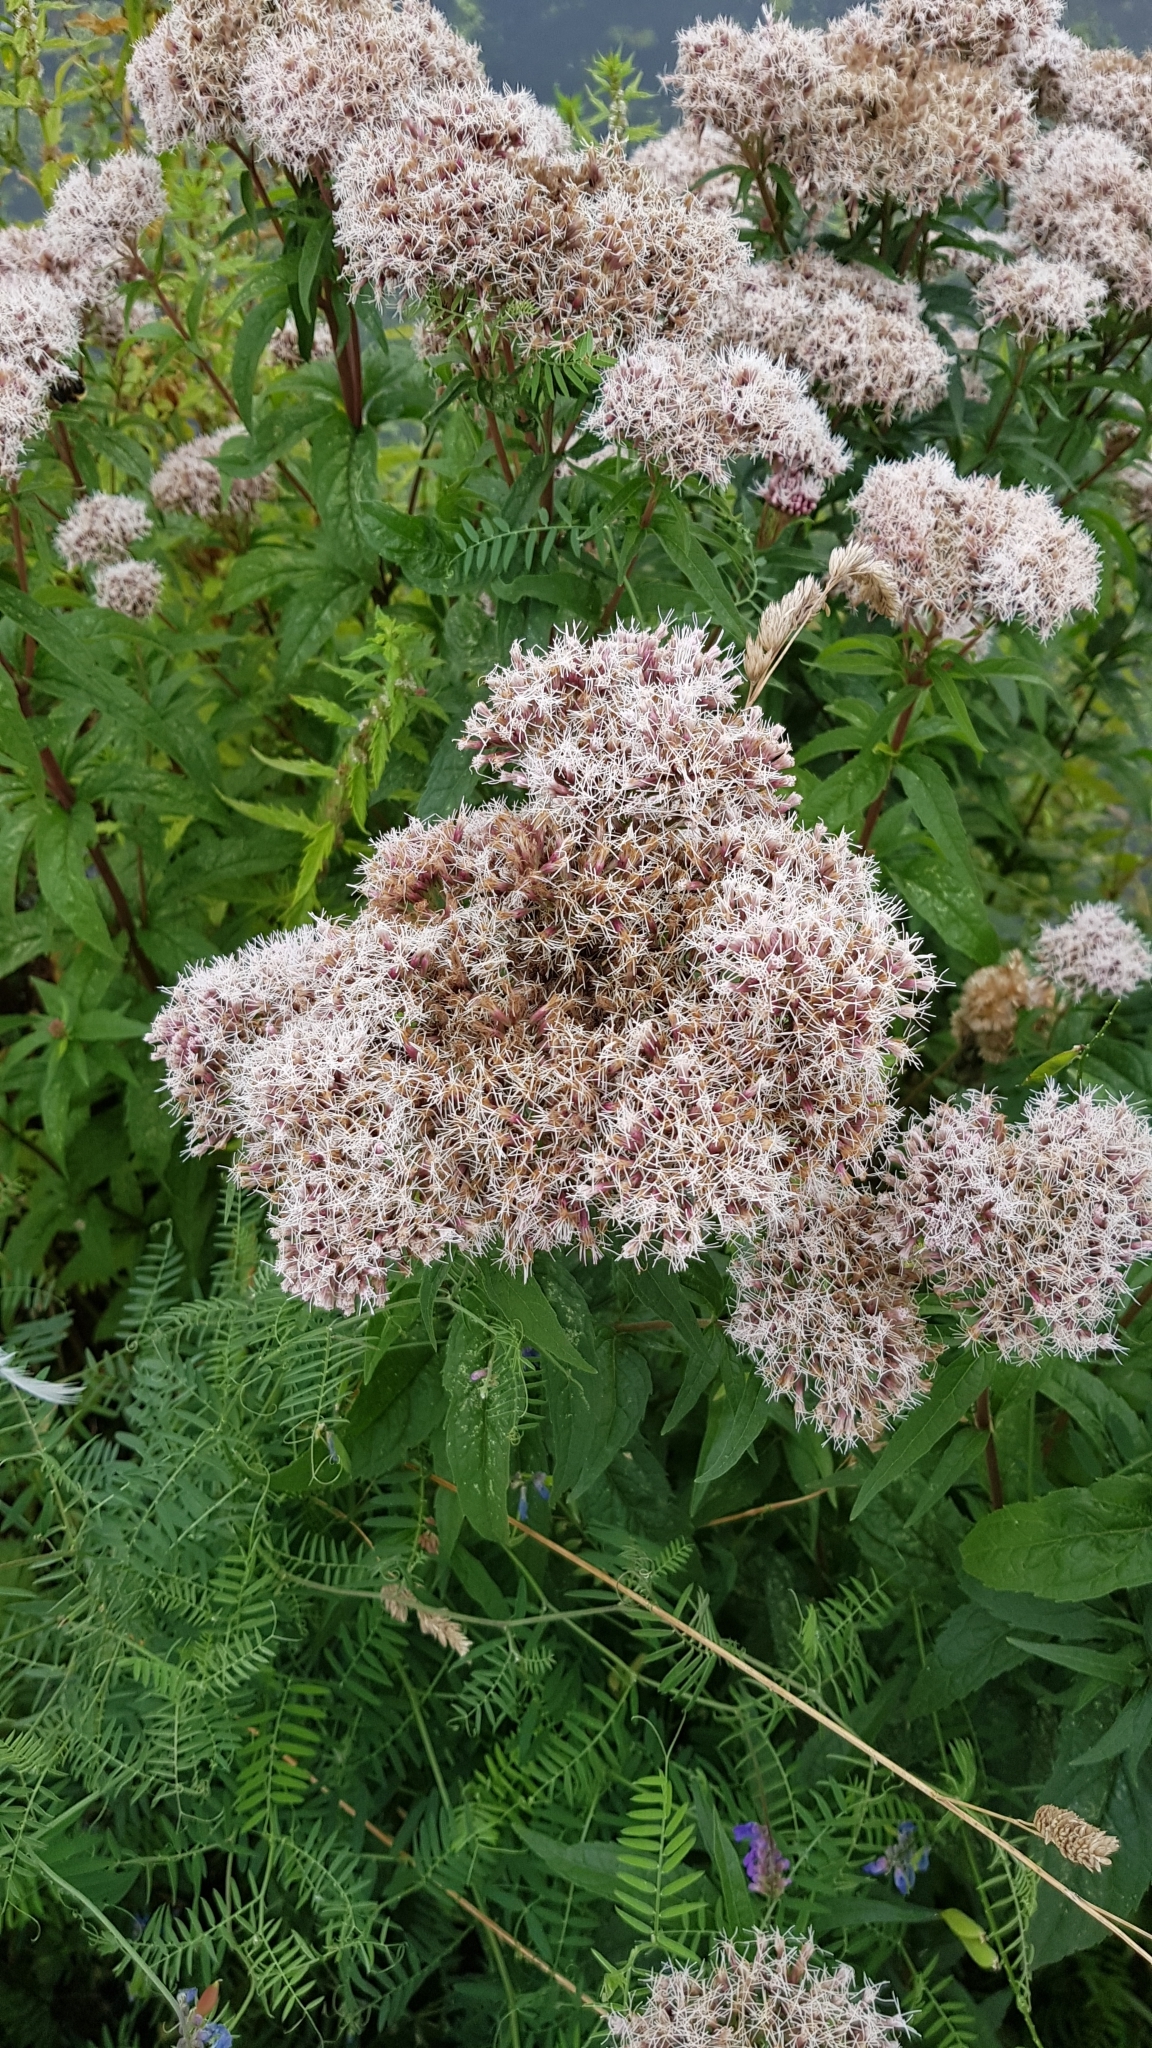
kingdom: Plantae
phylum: Tracheophyta
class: Magnoliopsida
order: Asterales
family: Asteraceae
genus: Eupatorium
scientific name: Eupatorium cannabinum
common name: Hemp-agrimony
